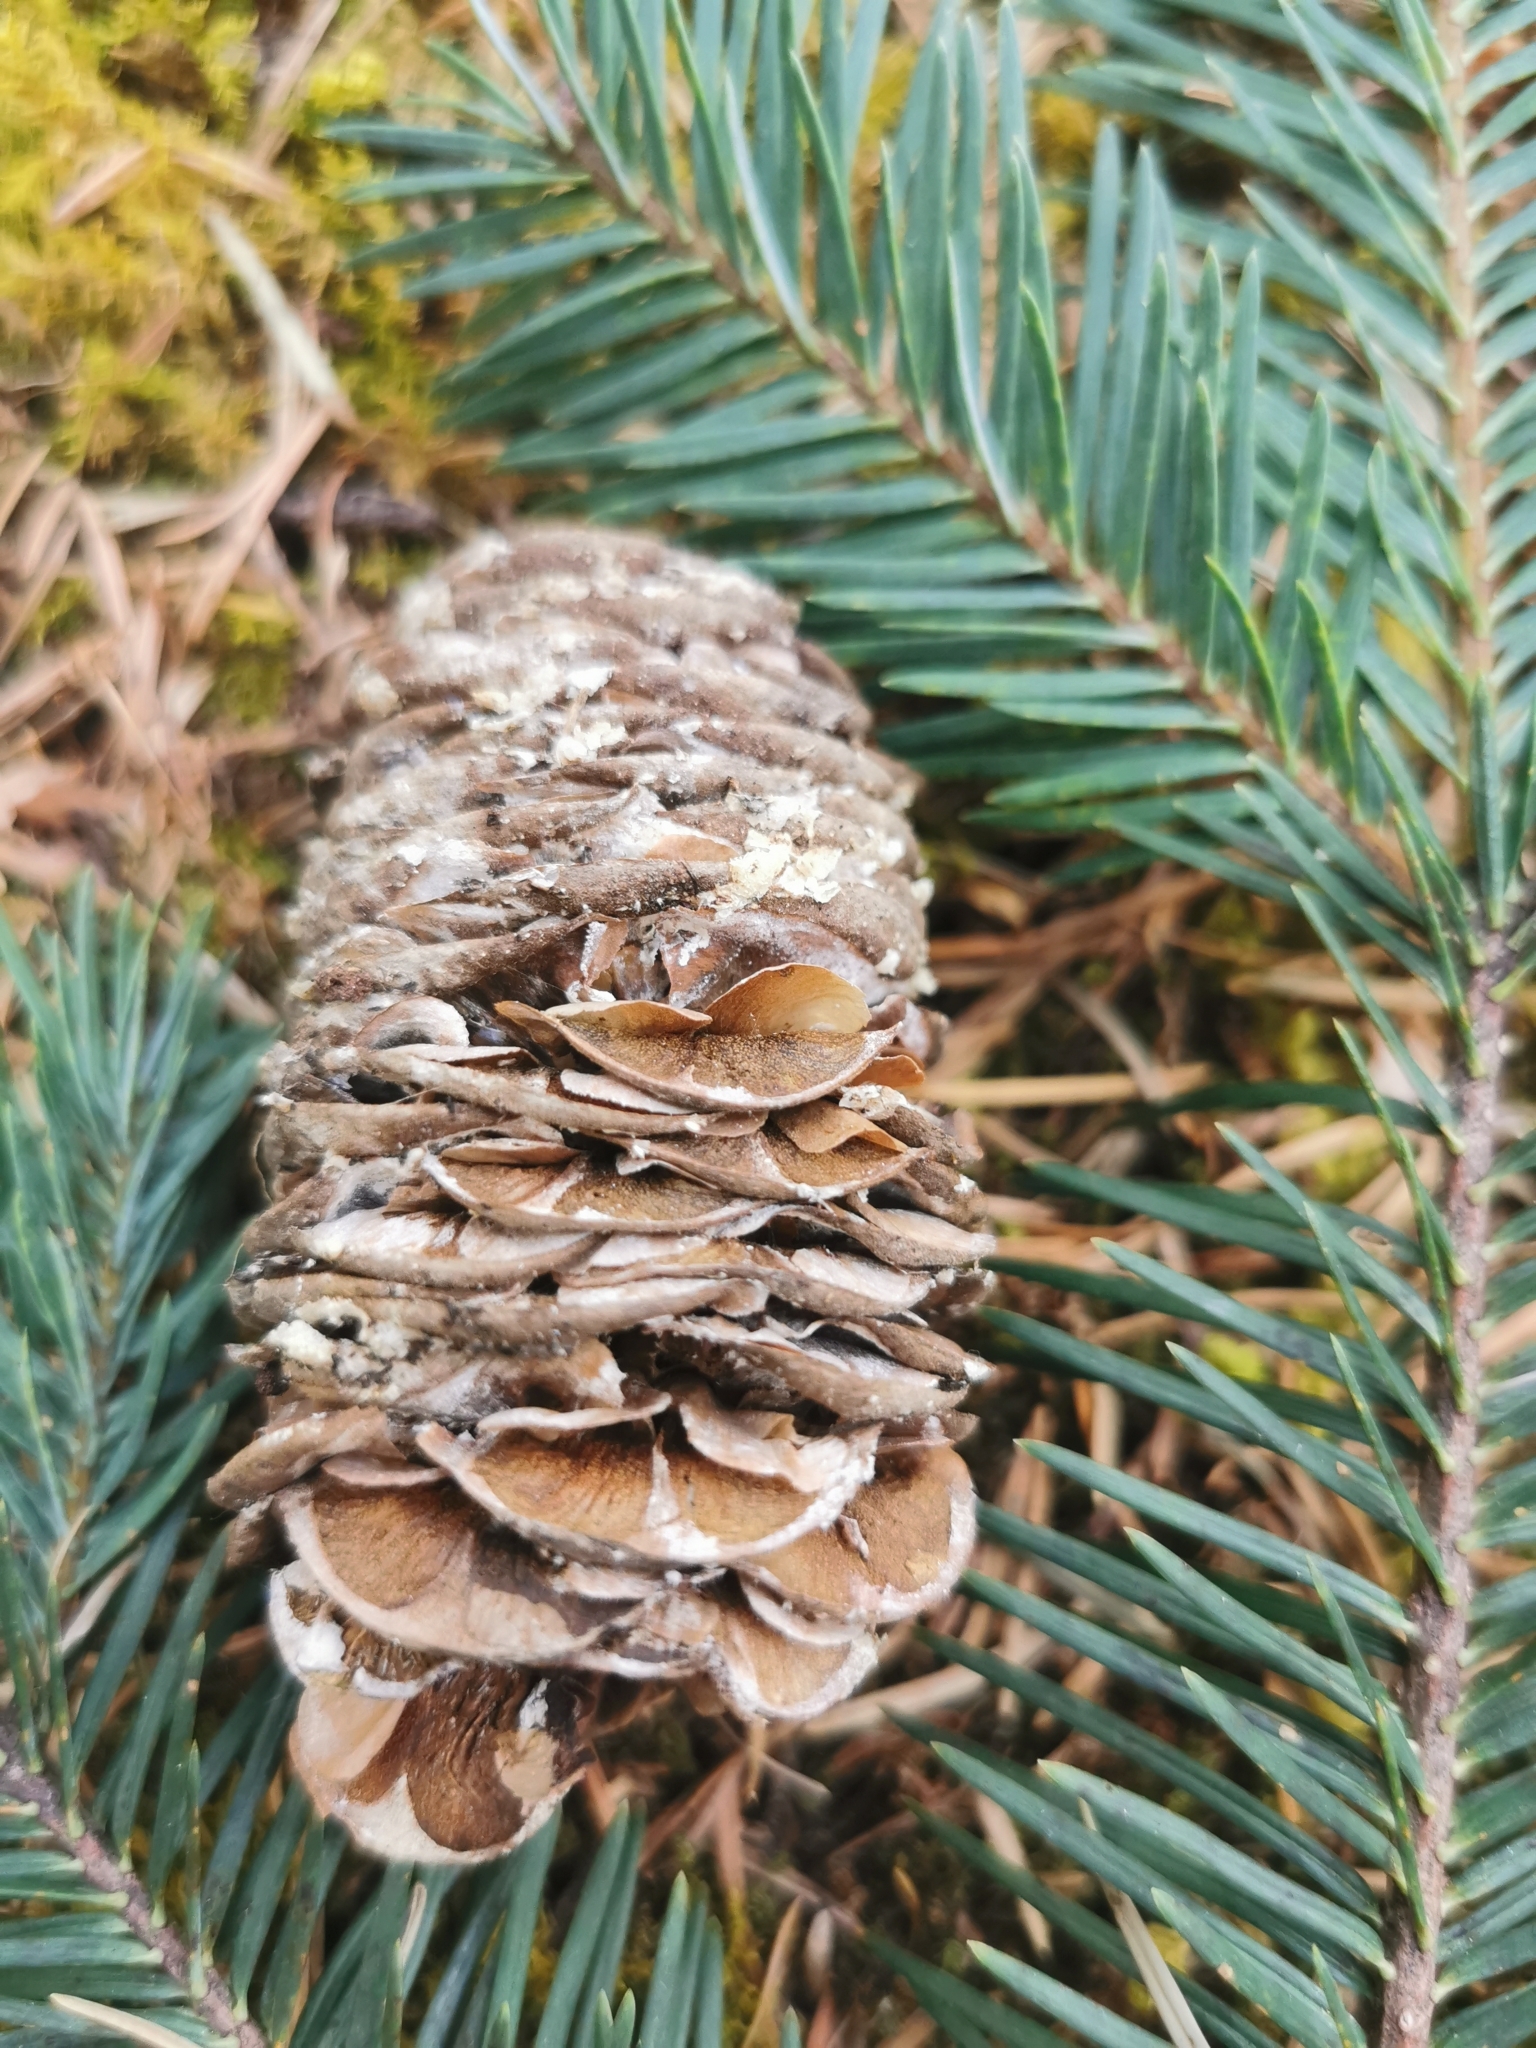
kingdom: Plantae
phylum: Tracheophyta
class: Pinopsida
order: Pinales
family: Pinaceae
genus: Abies
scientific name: Abies durangensis
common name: Durango fir
